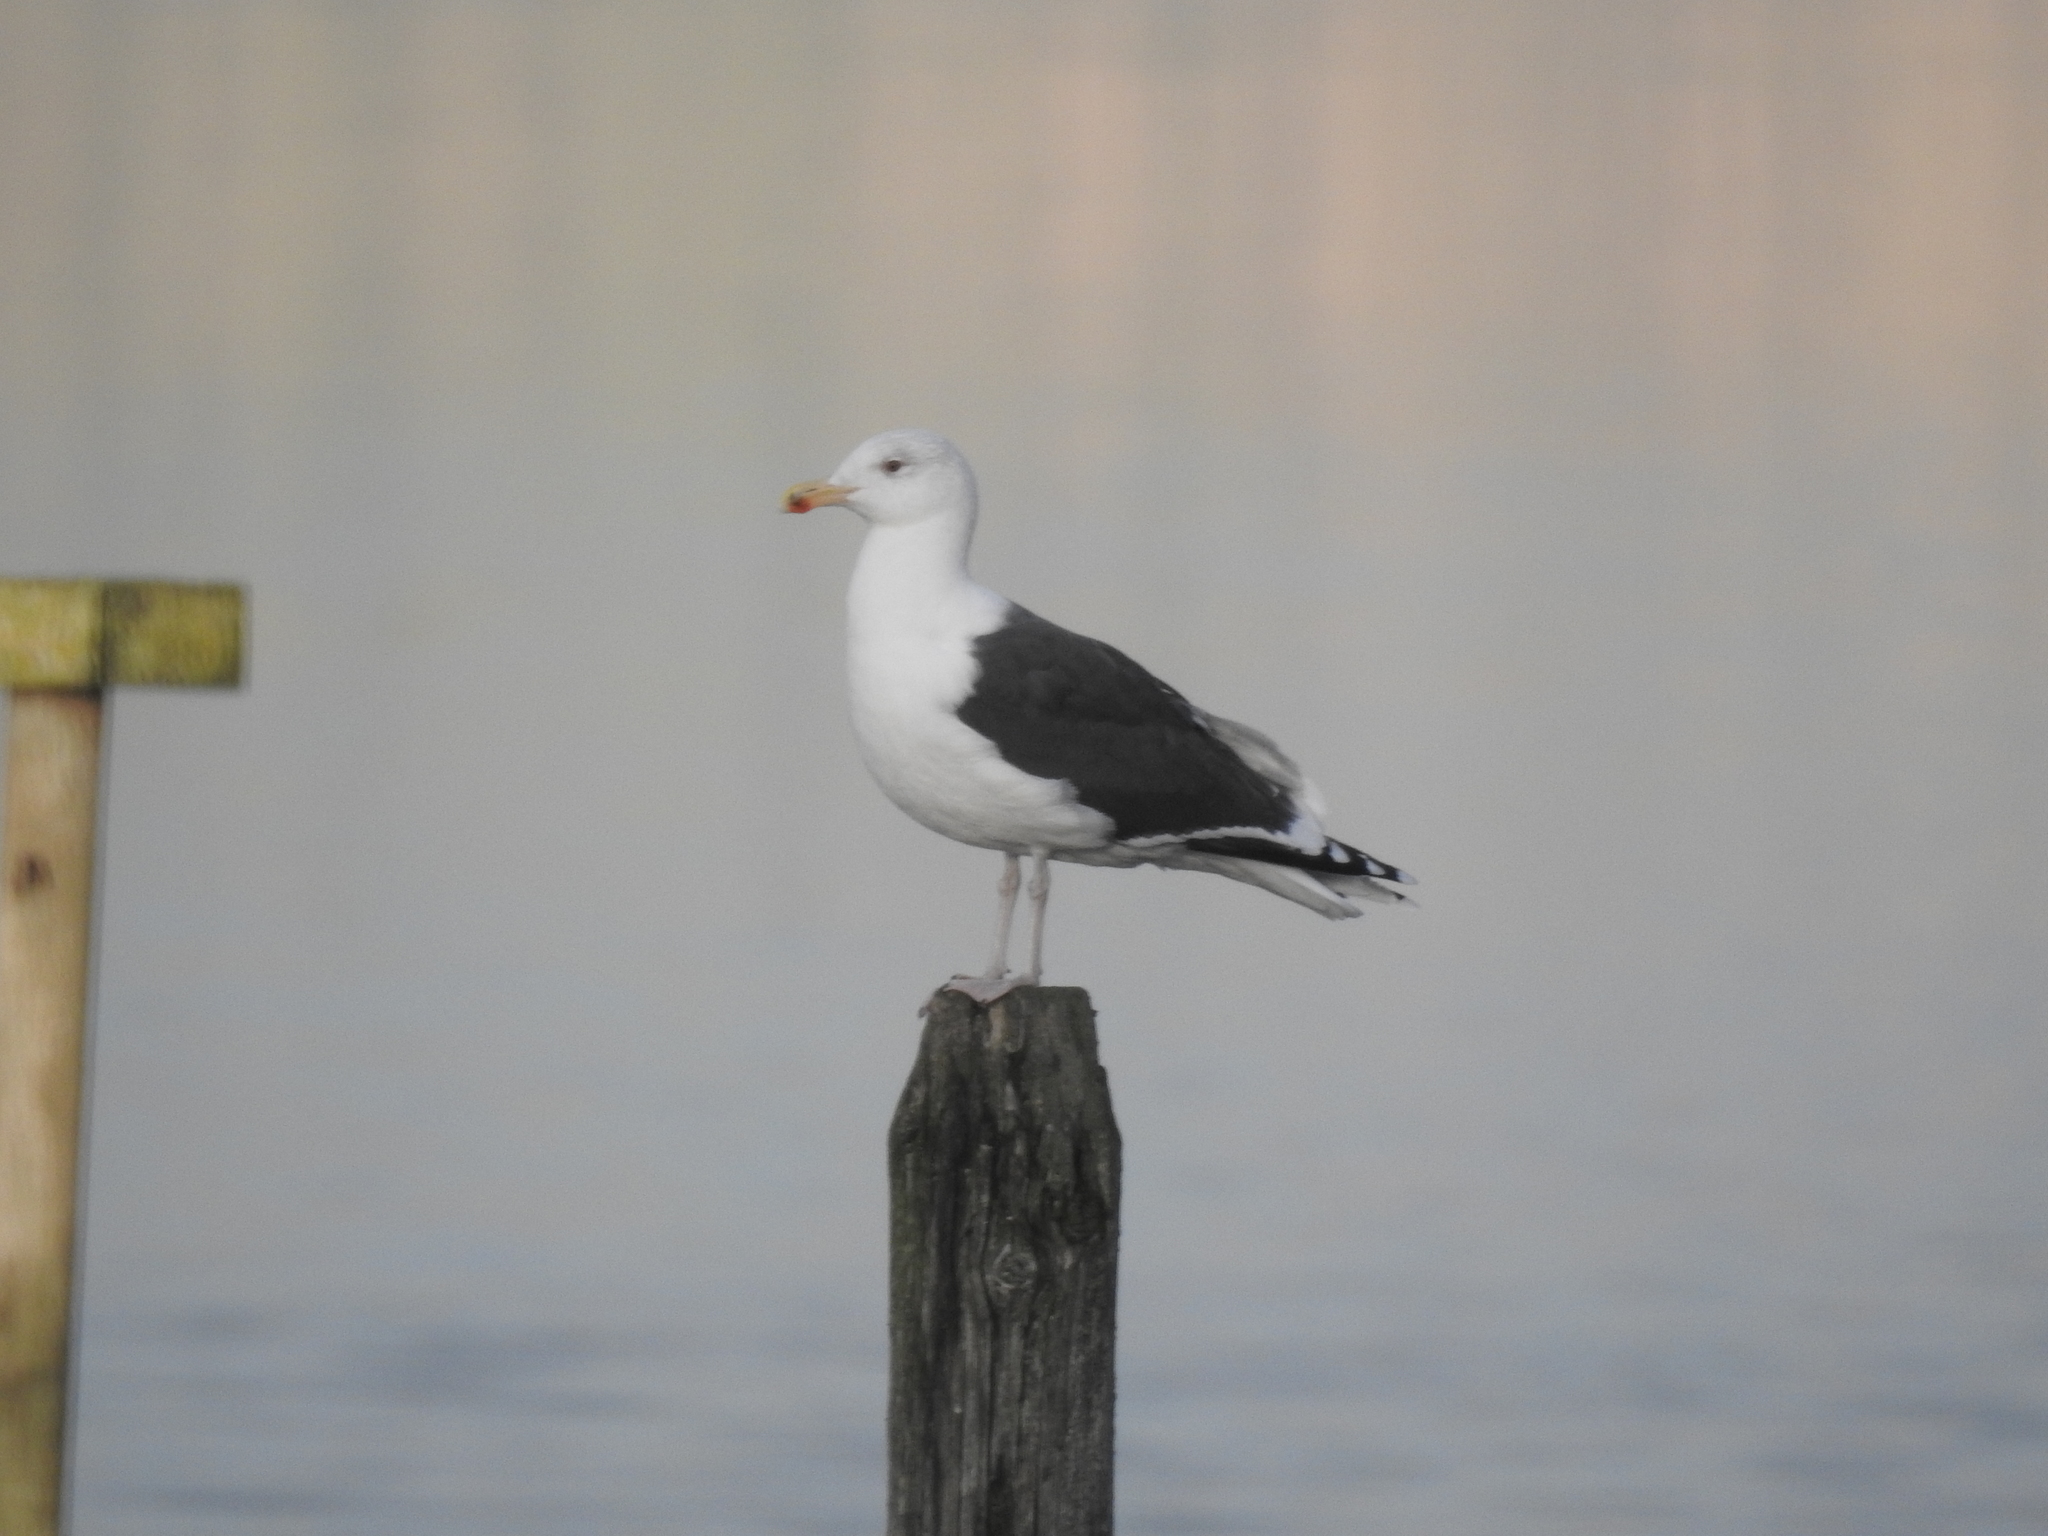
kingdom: Animalia
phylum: Chordata
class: Aves
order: Charadriiformes
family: Laridae
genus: Larus
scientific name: Larus marinus
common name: Great black-backed gull
